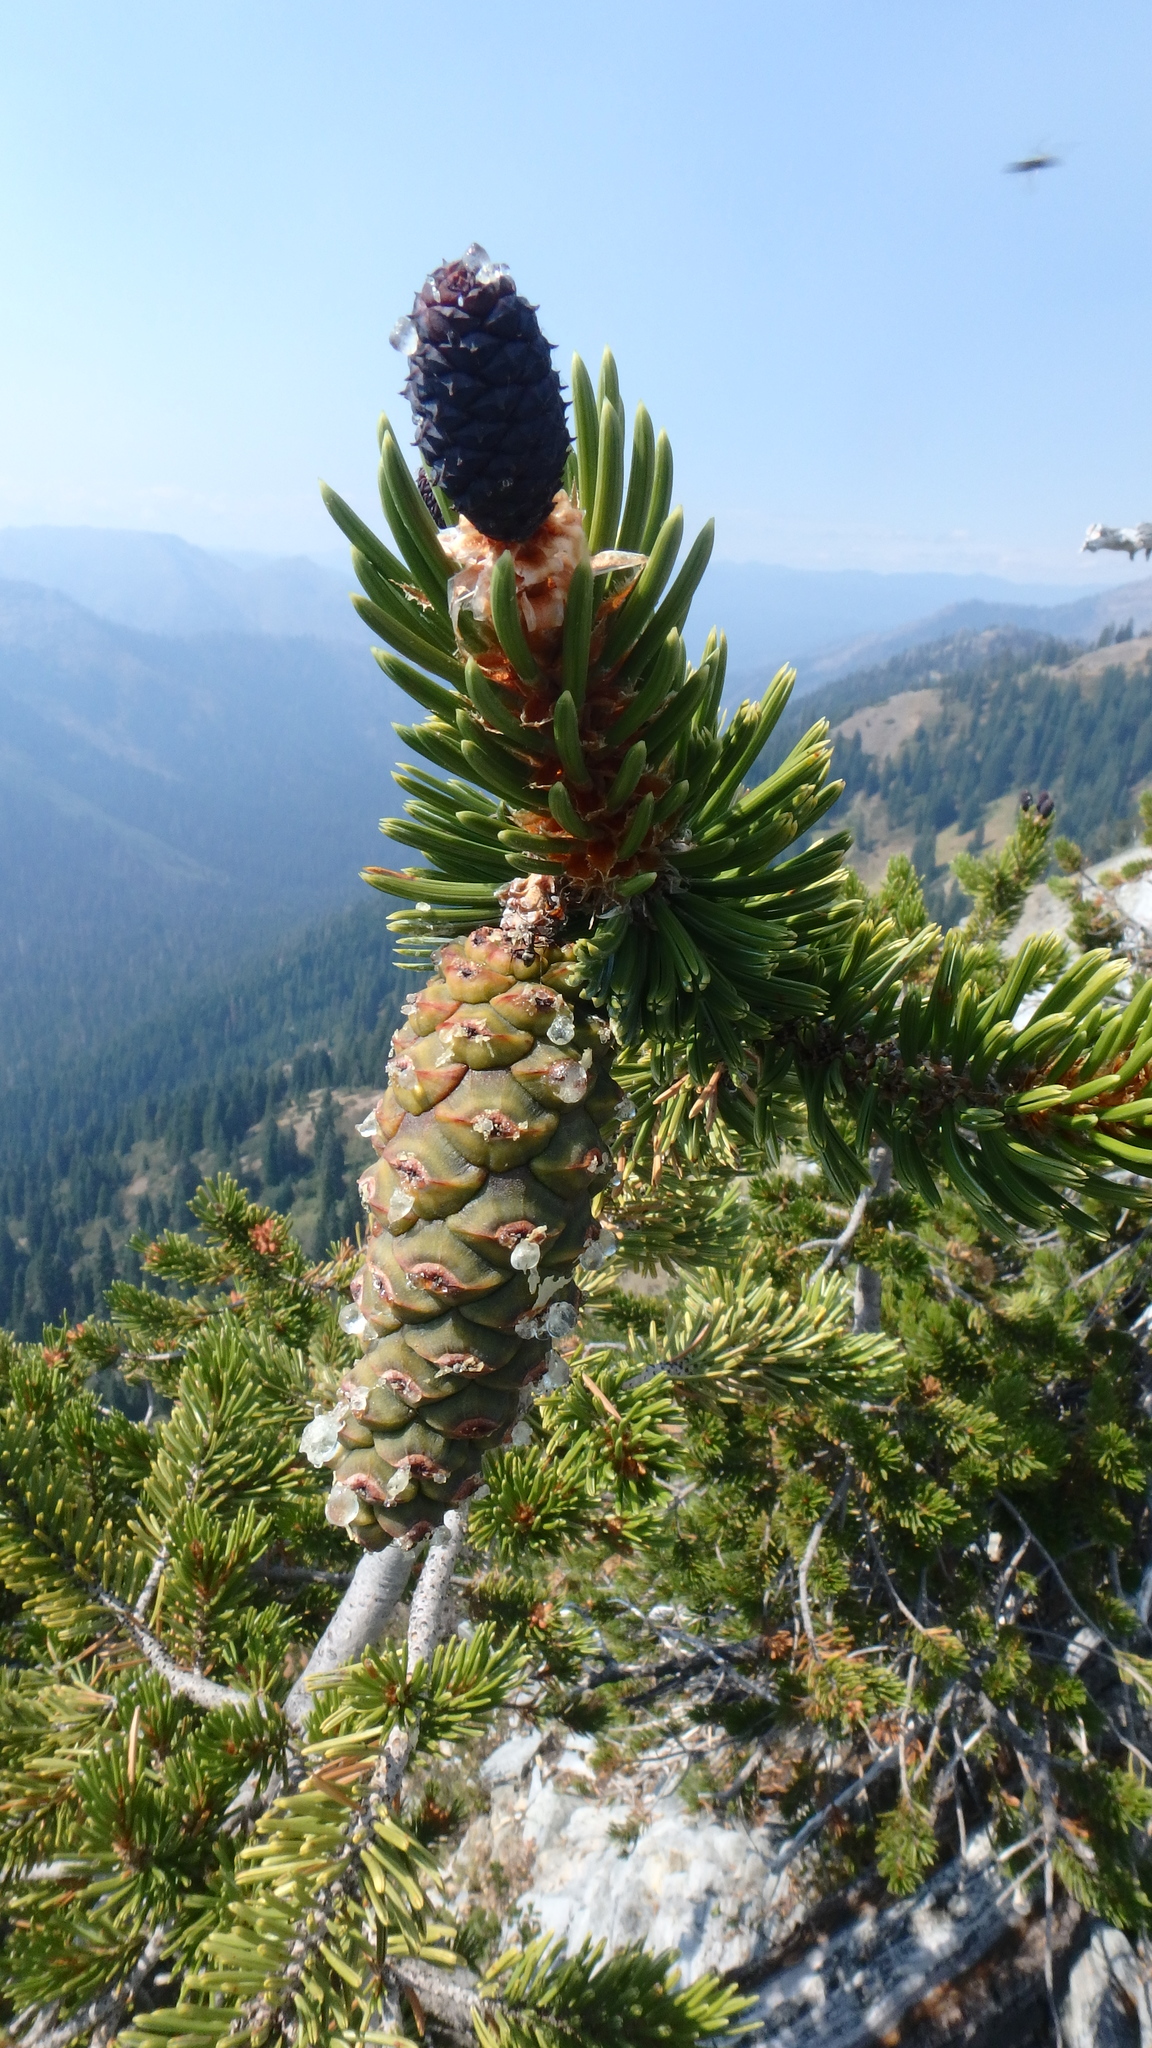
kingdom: Plantae
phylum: Tracheophyta
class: Pinopsida
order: Pinales
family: Pinaceae
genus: Pinus
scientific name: Pinus balfouriana
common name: Foxtail pine
